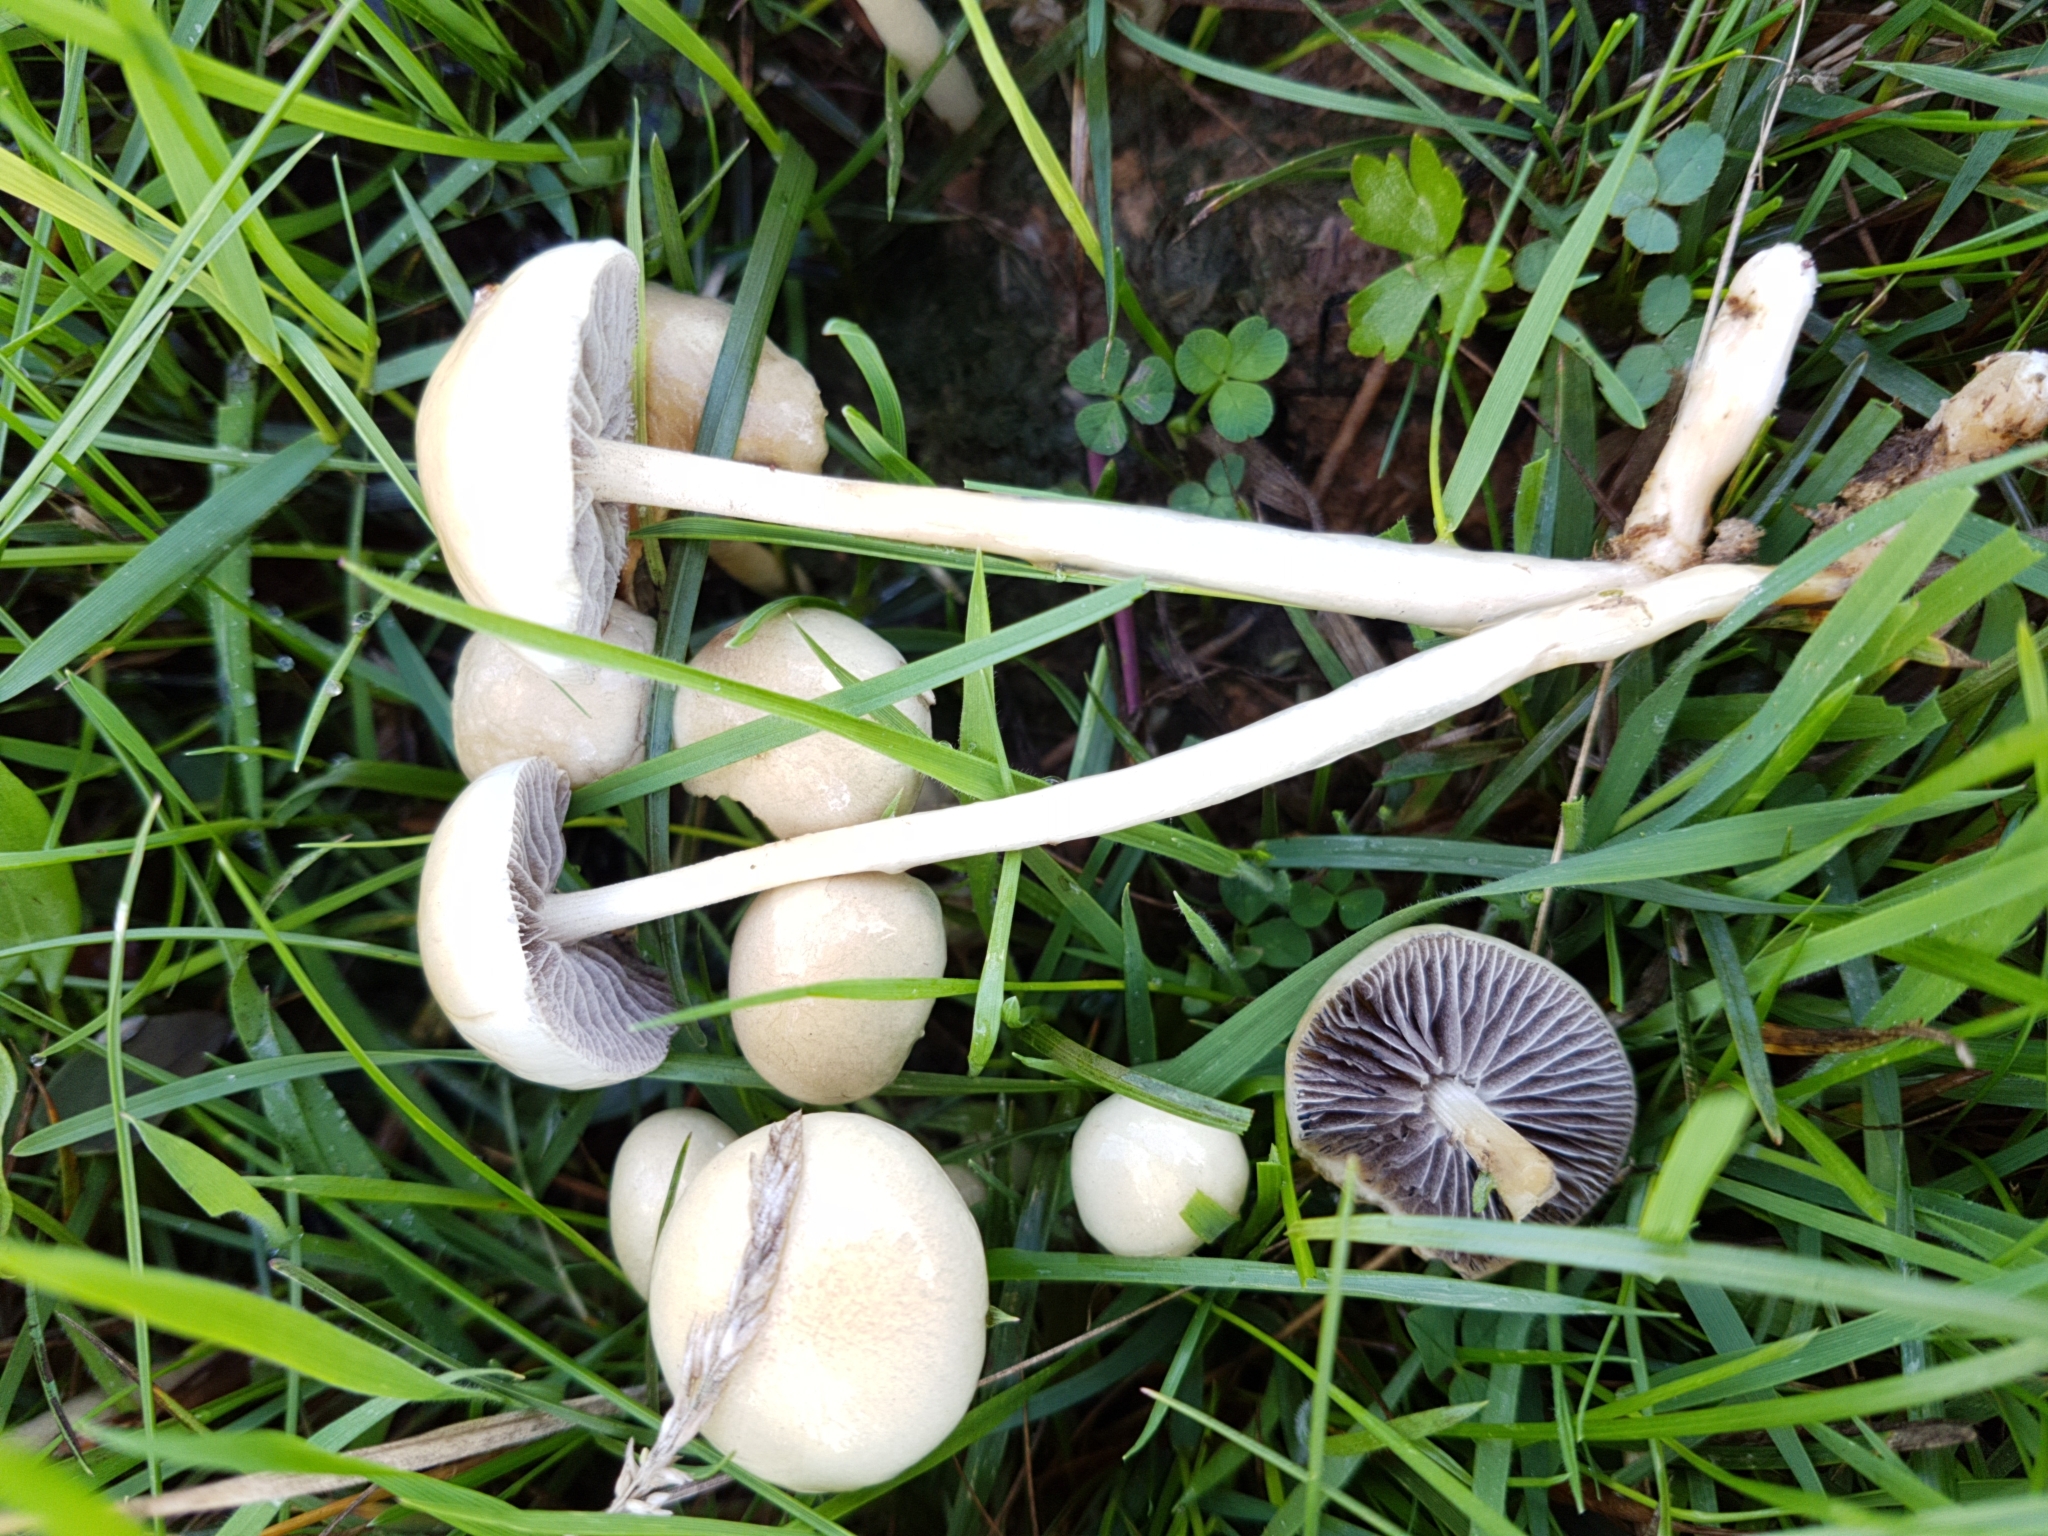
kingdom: Fungi
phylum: Basidiomycota
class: Agaricomycetes
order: Agaricales
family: Strophariaceae
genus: Protostropharia
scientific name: Protostropharia semiglobata
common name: Dung roundhead
